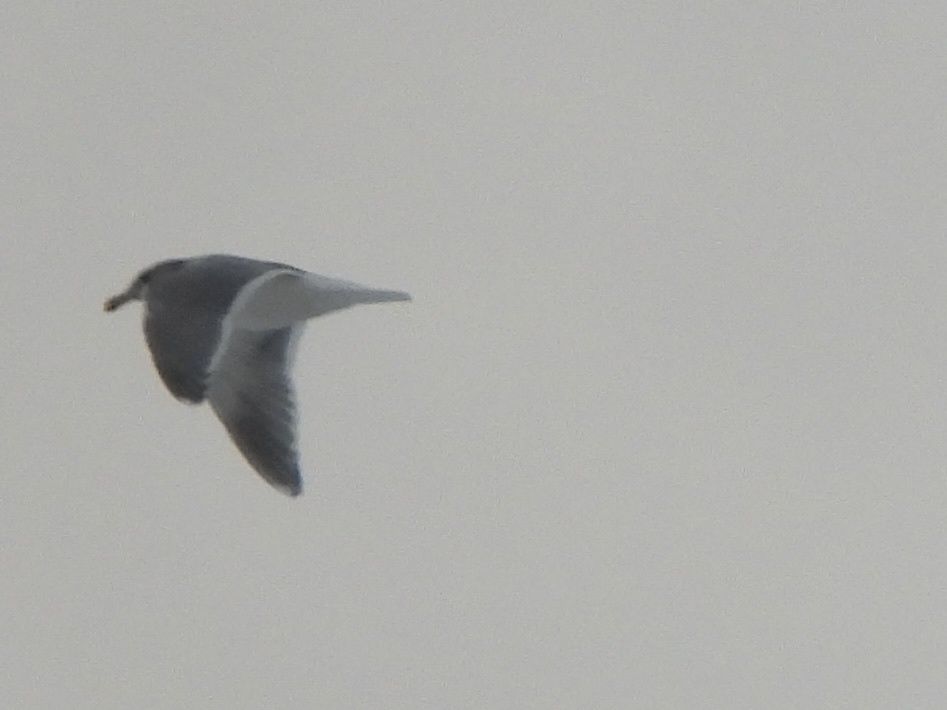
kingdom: Animalia
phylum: Chordata
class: Aves
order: Charadriiformes
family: Laridae
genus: Larus
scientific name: Larus
